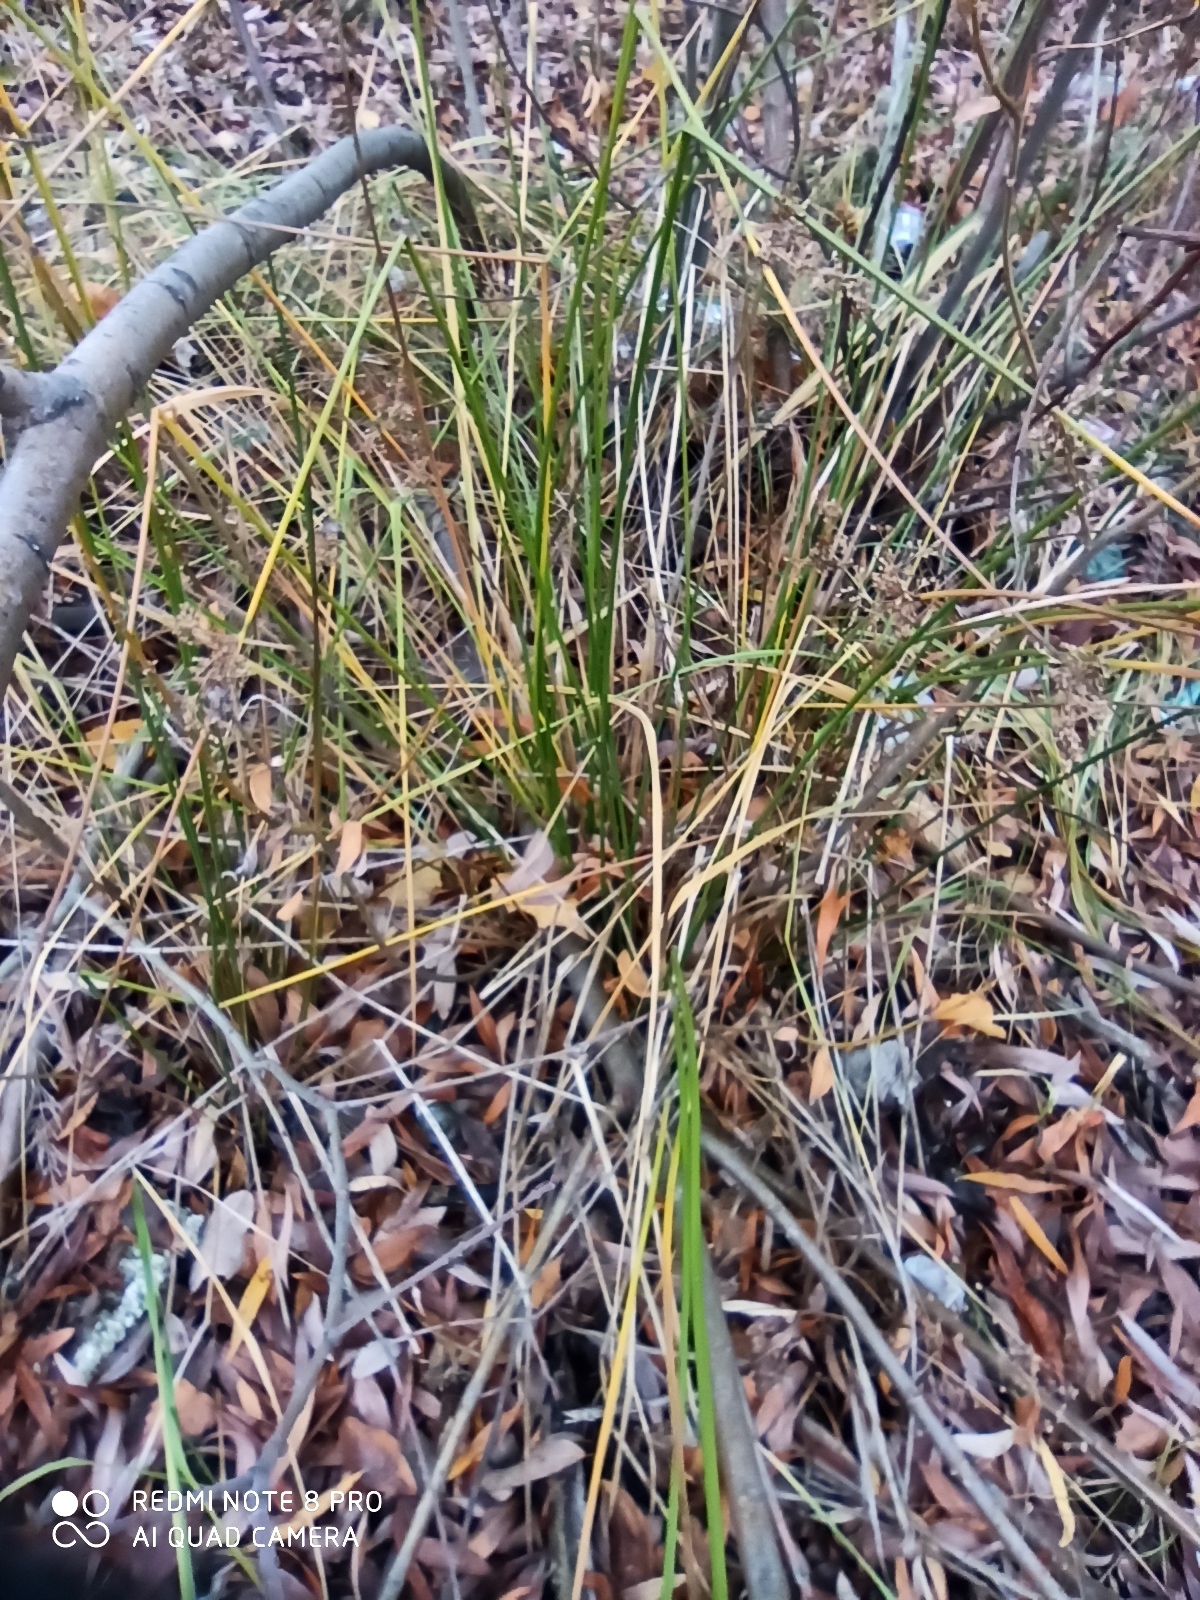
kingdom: Plantae
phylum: Tracheophyta
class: Liliopsida
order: Poales
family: Juncaceae
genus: Juncus
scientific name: Juncus effusus
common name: Soft rush
